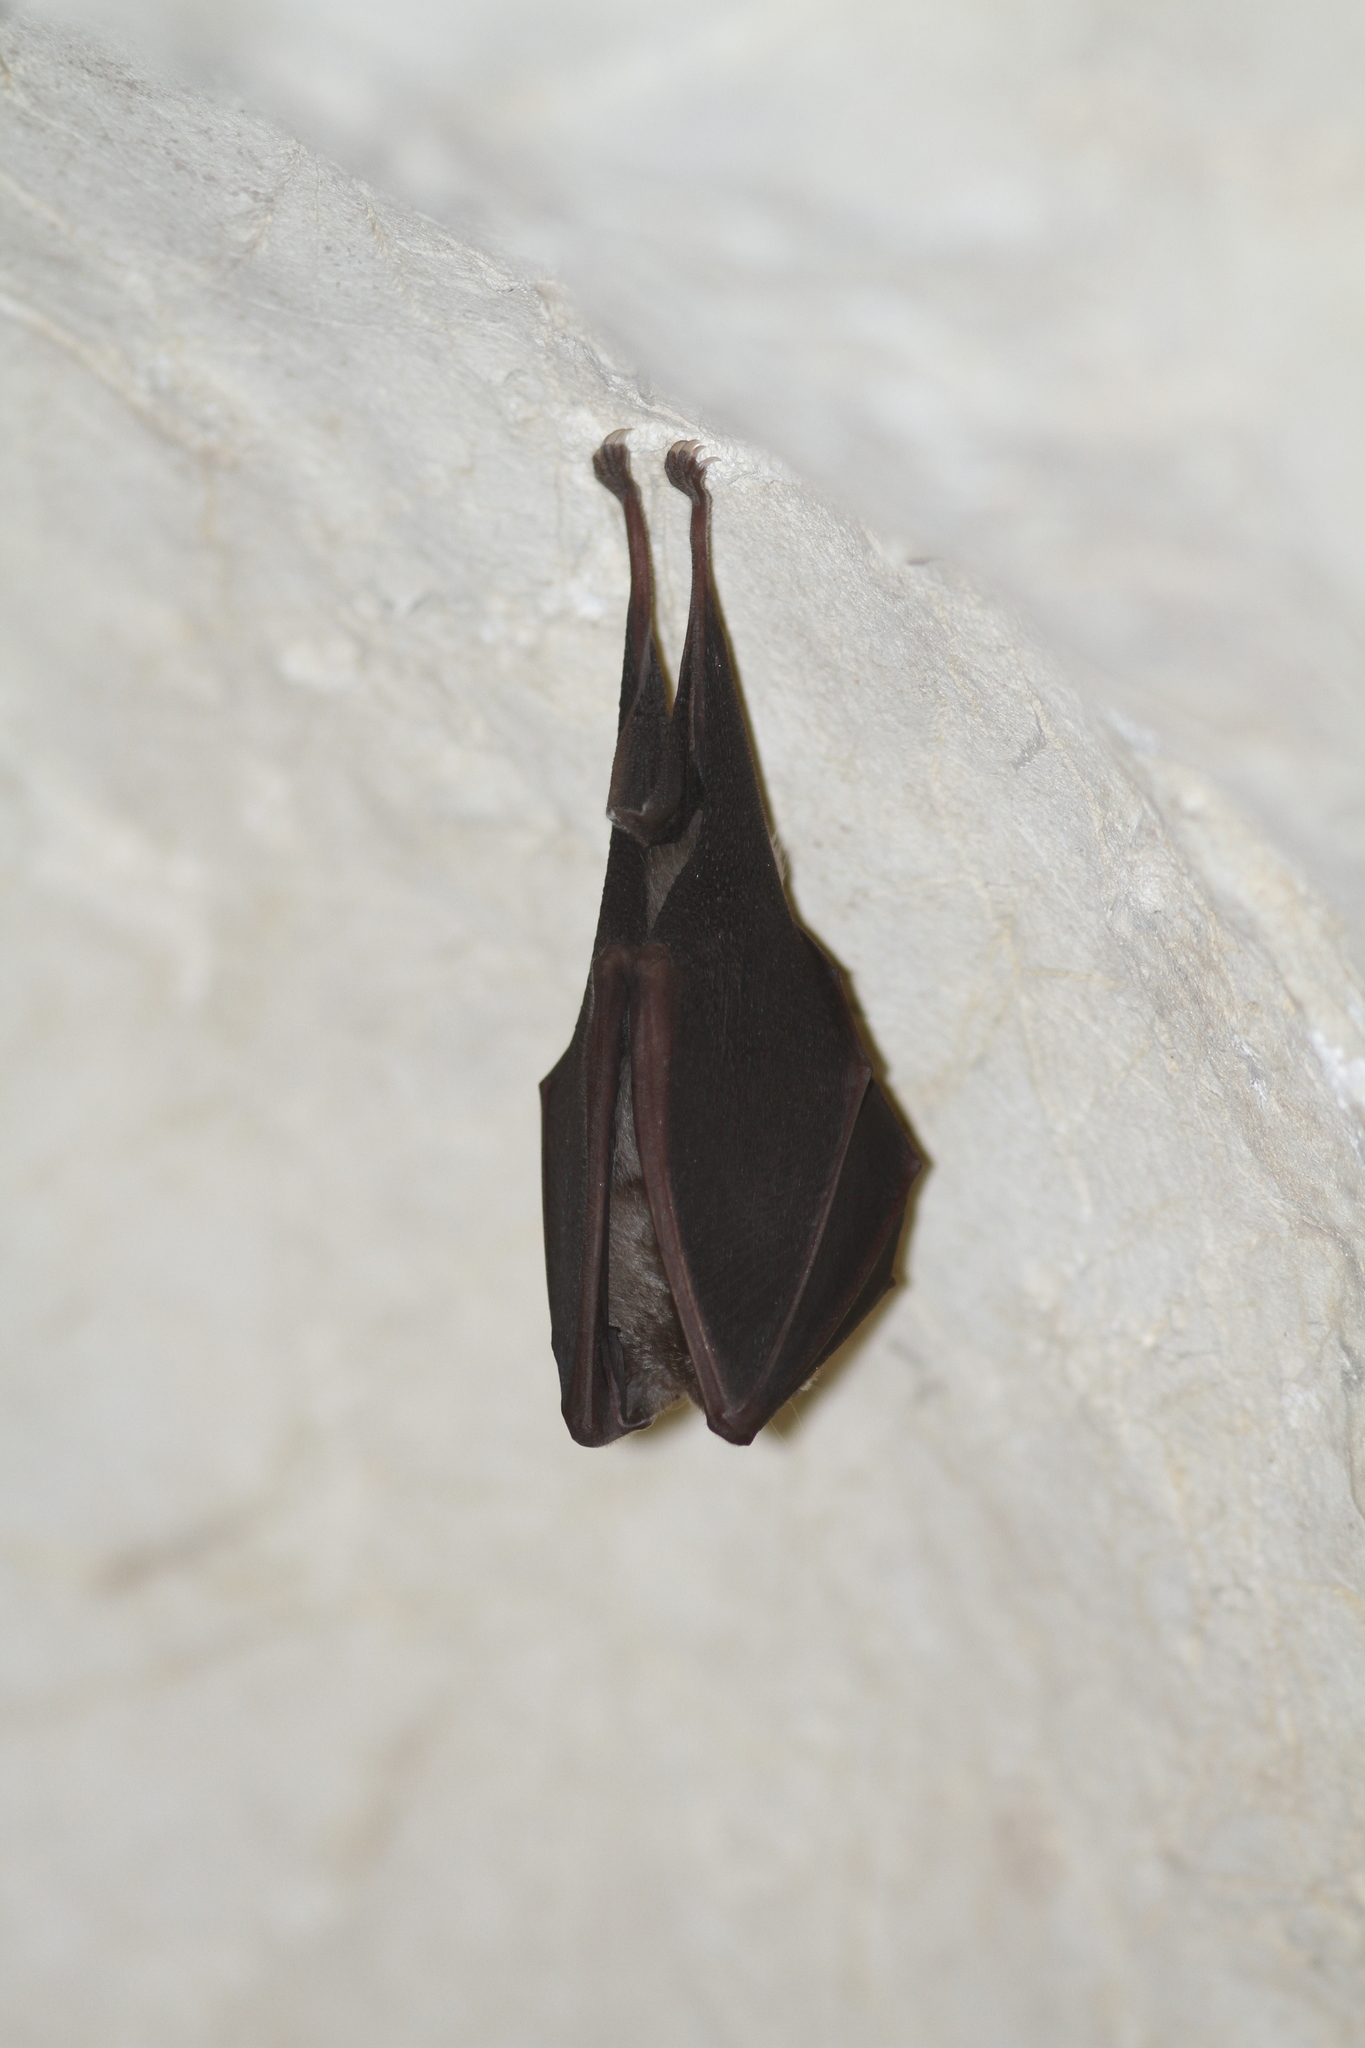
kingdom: Animalia
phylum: Chordata
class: Mammalia
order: Chiroptera
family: Rhinolophidae
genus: Rhinolophus
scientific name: Rhinolophus ferrumequinum
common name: Greater horseshoe bat
